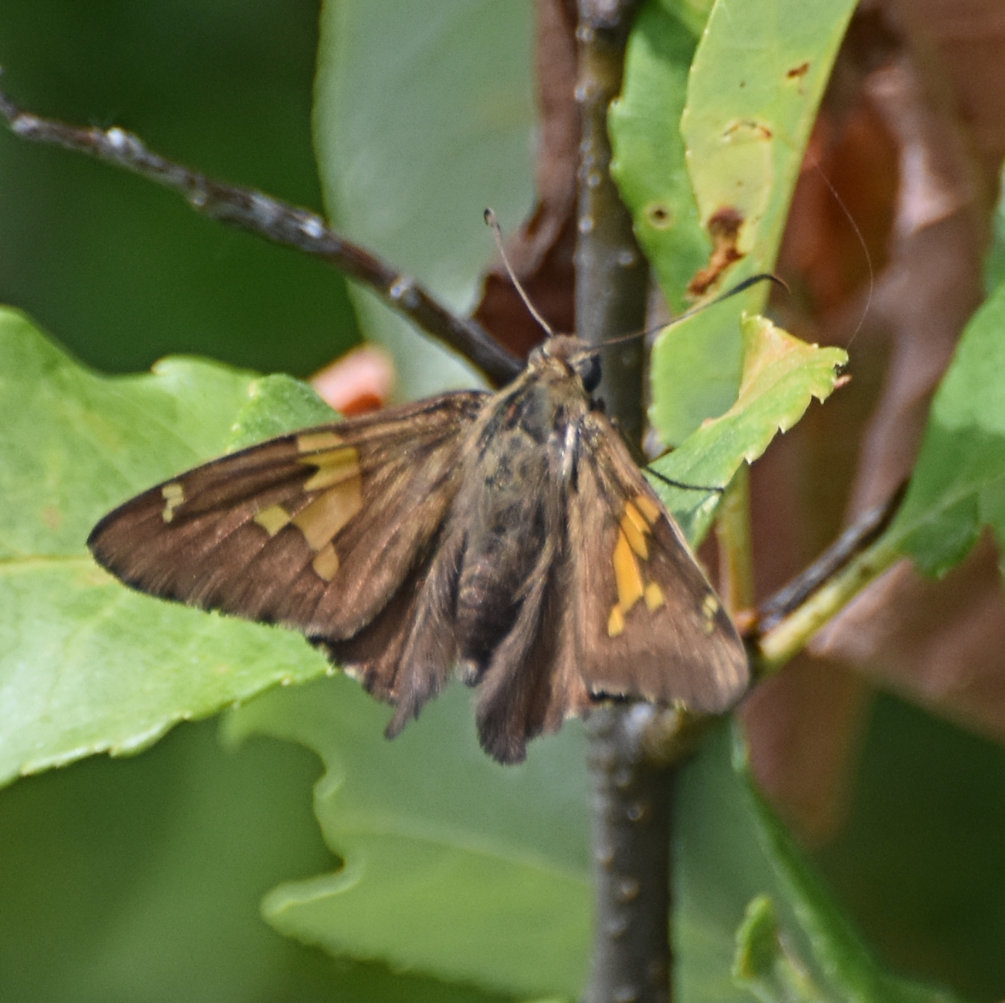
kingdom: Animalia
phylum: Arthropoda
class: Insecta
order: Lepidoptera
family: Hesperiidae
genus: Epargyreus
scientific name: Epargyreus clarus
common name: Silver-spotted skipper
